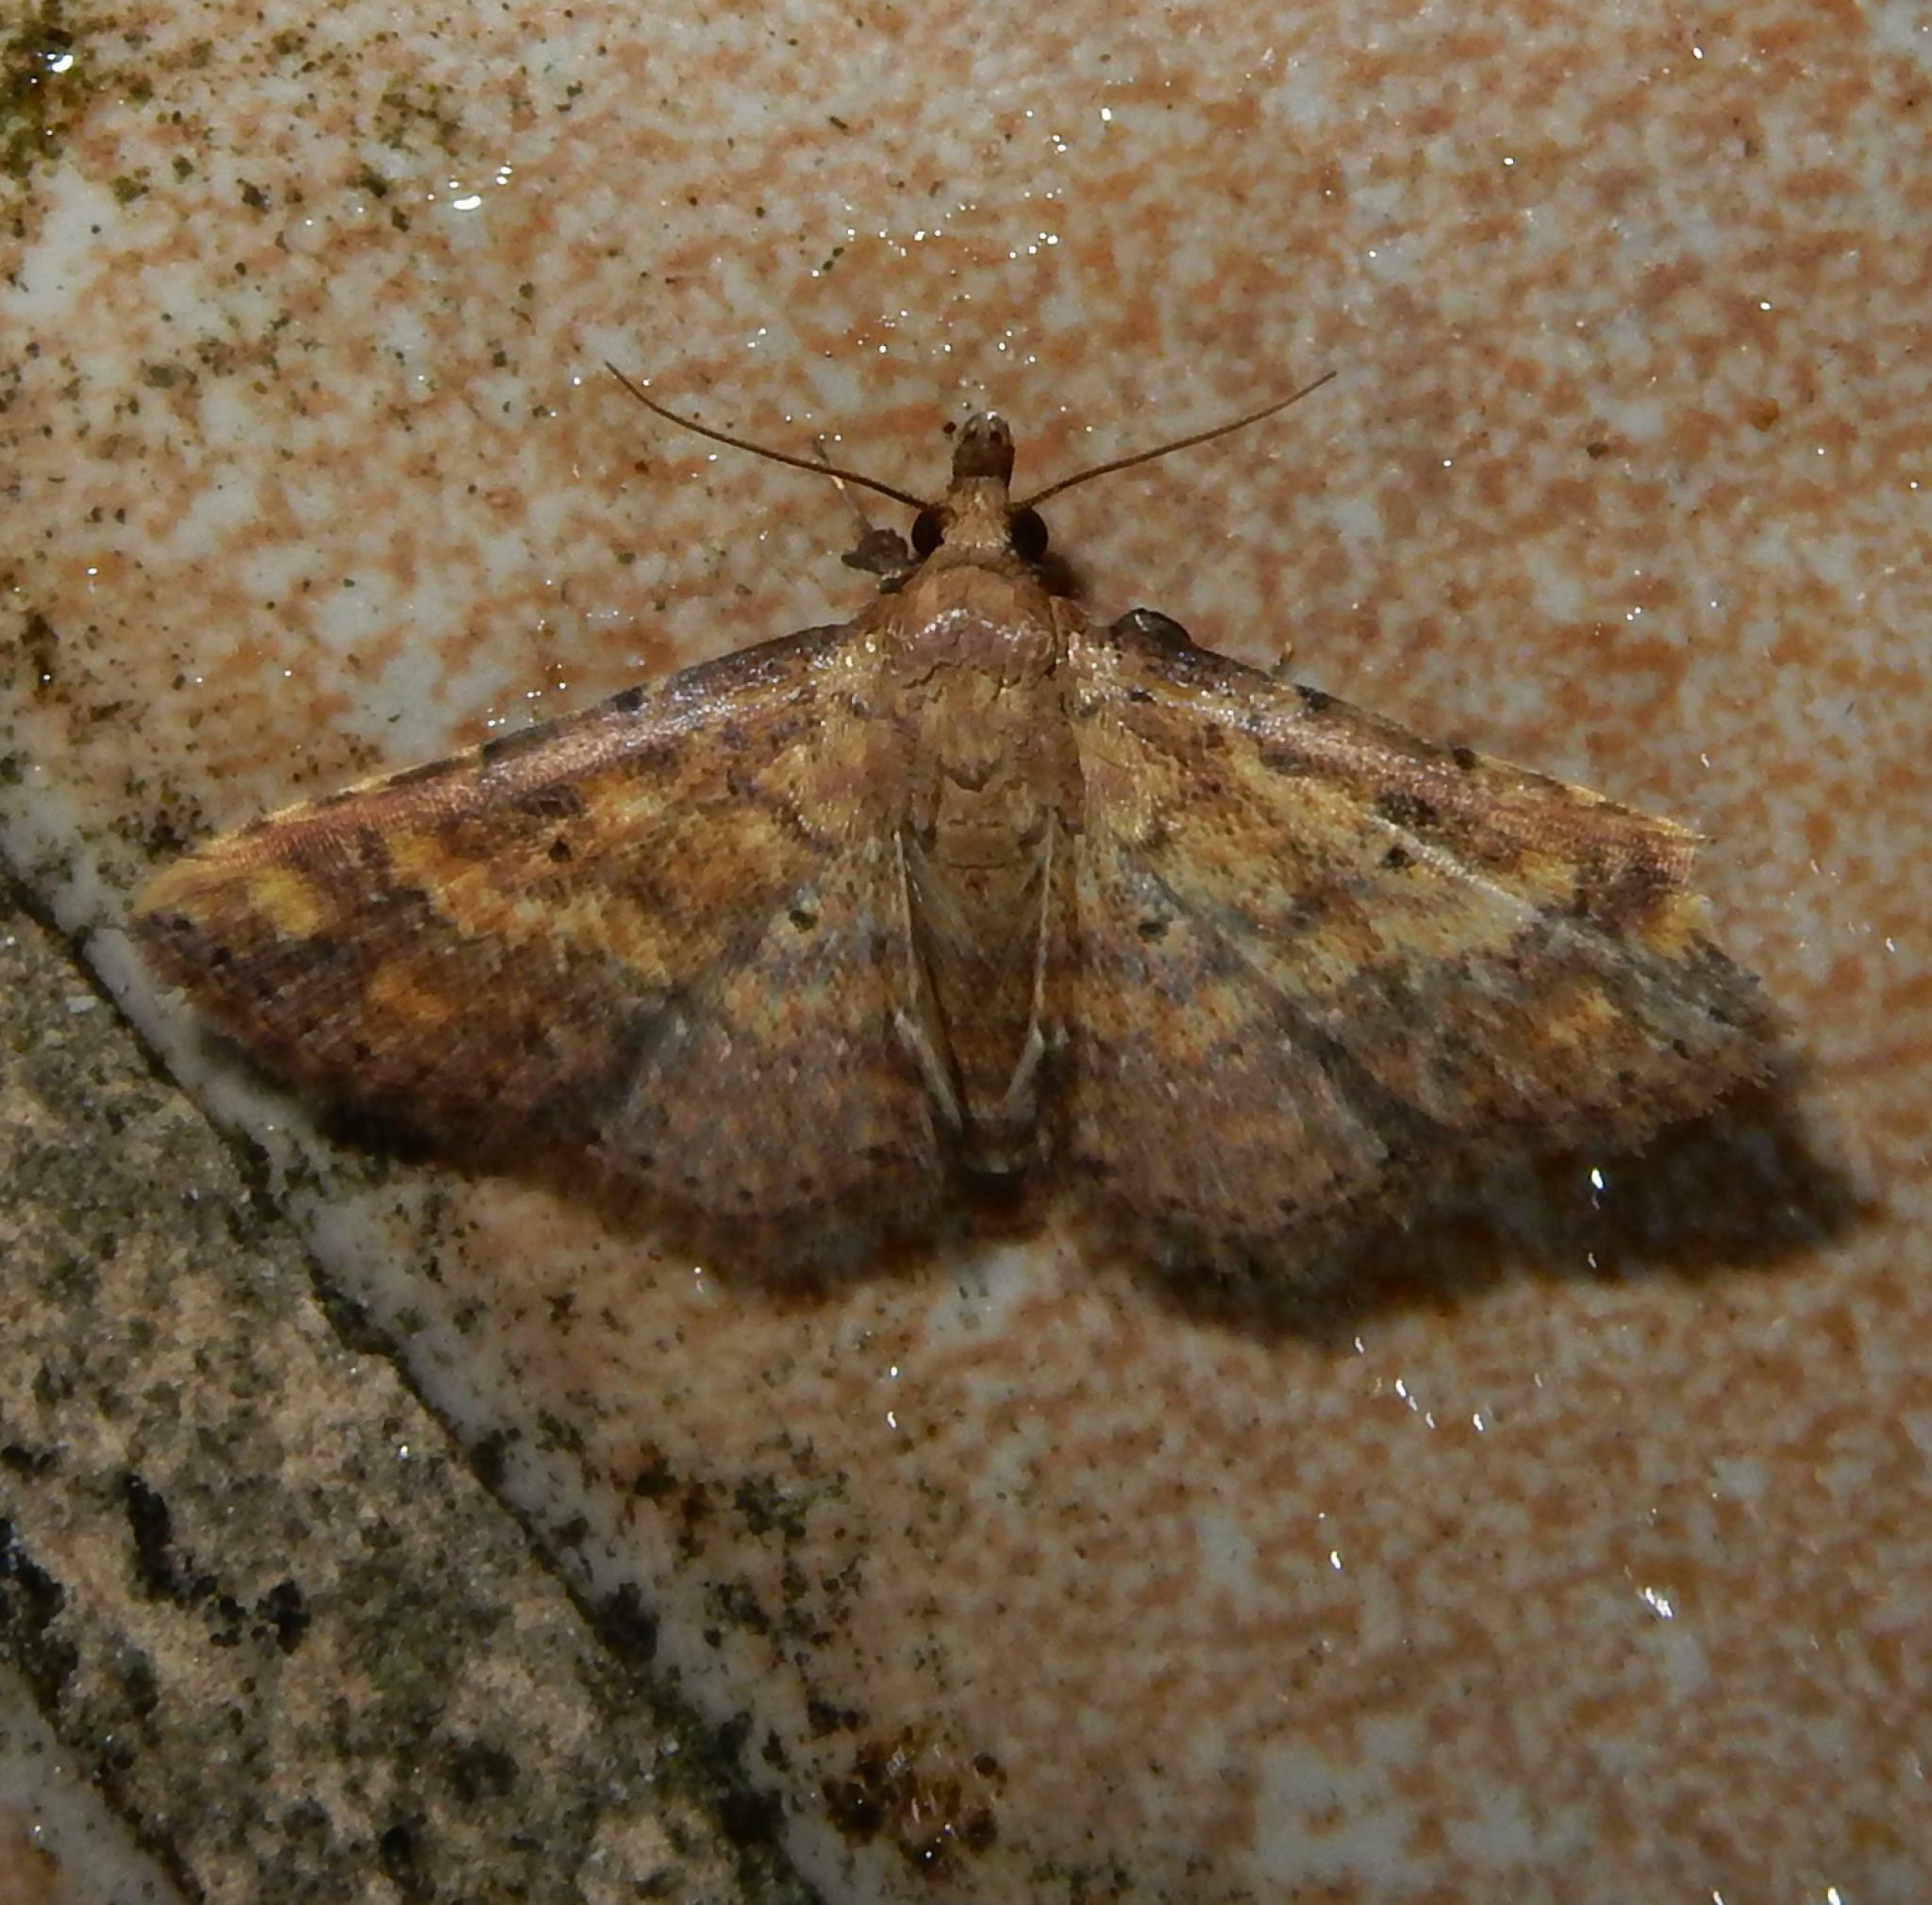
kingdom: Animalia
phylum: Arthropoda
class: Insecta
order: Lepidoptera
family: Noctuidae
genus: Cerynea
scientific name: Cerynea thermesialis
